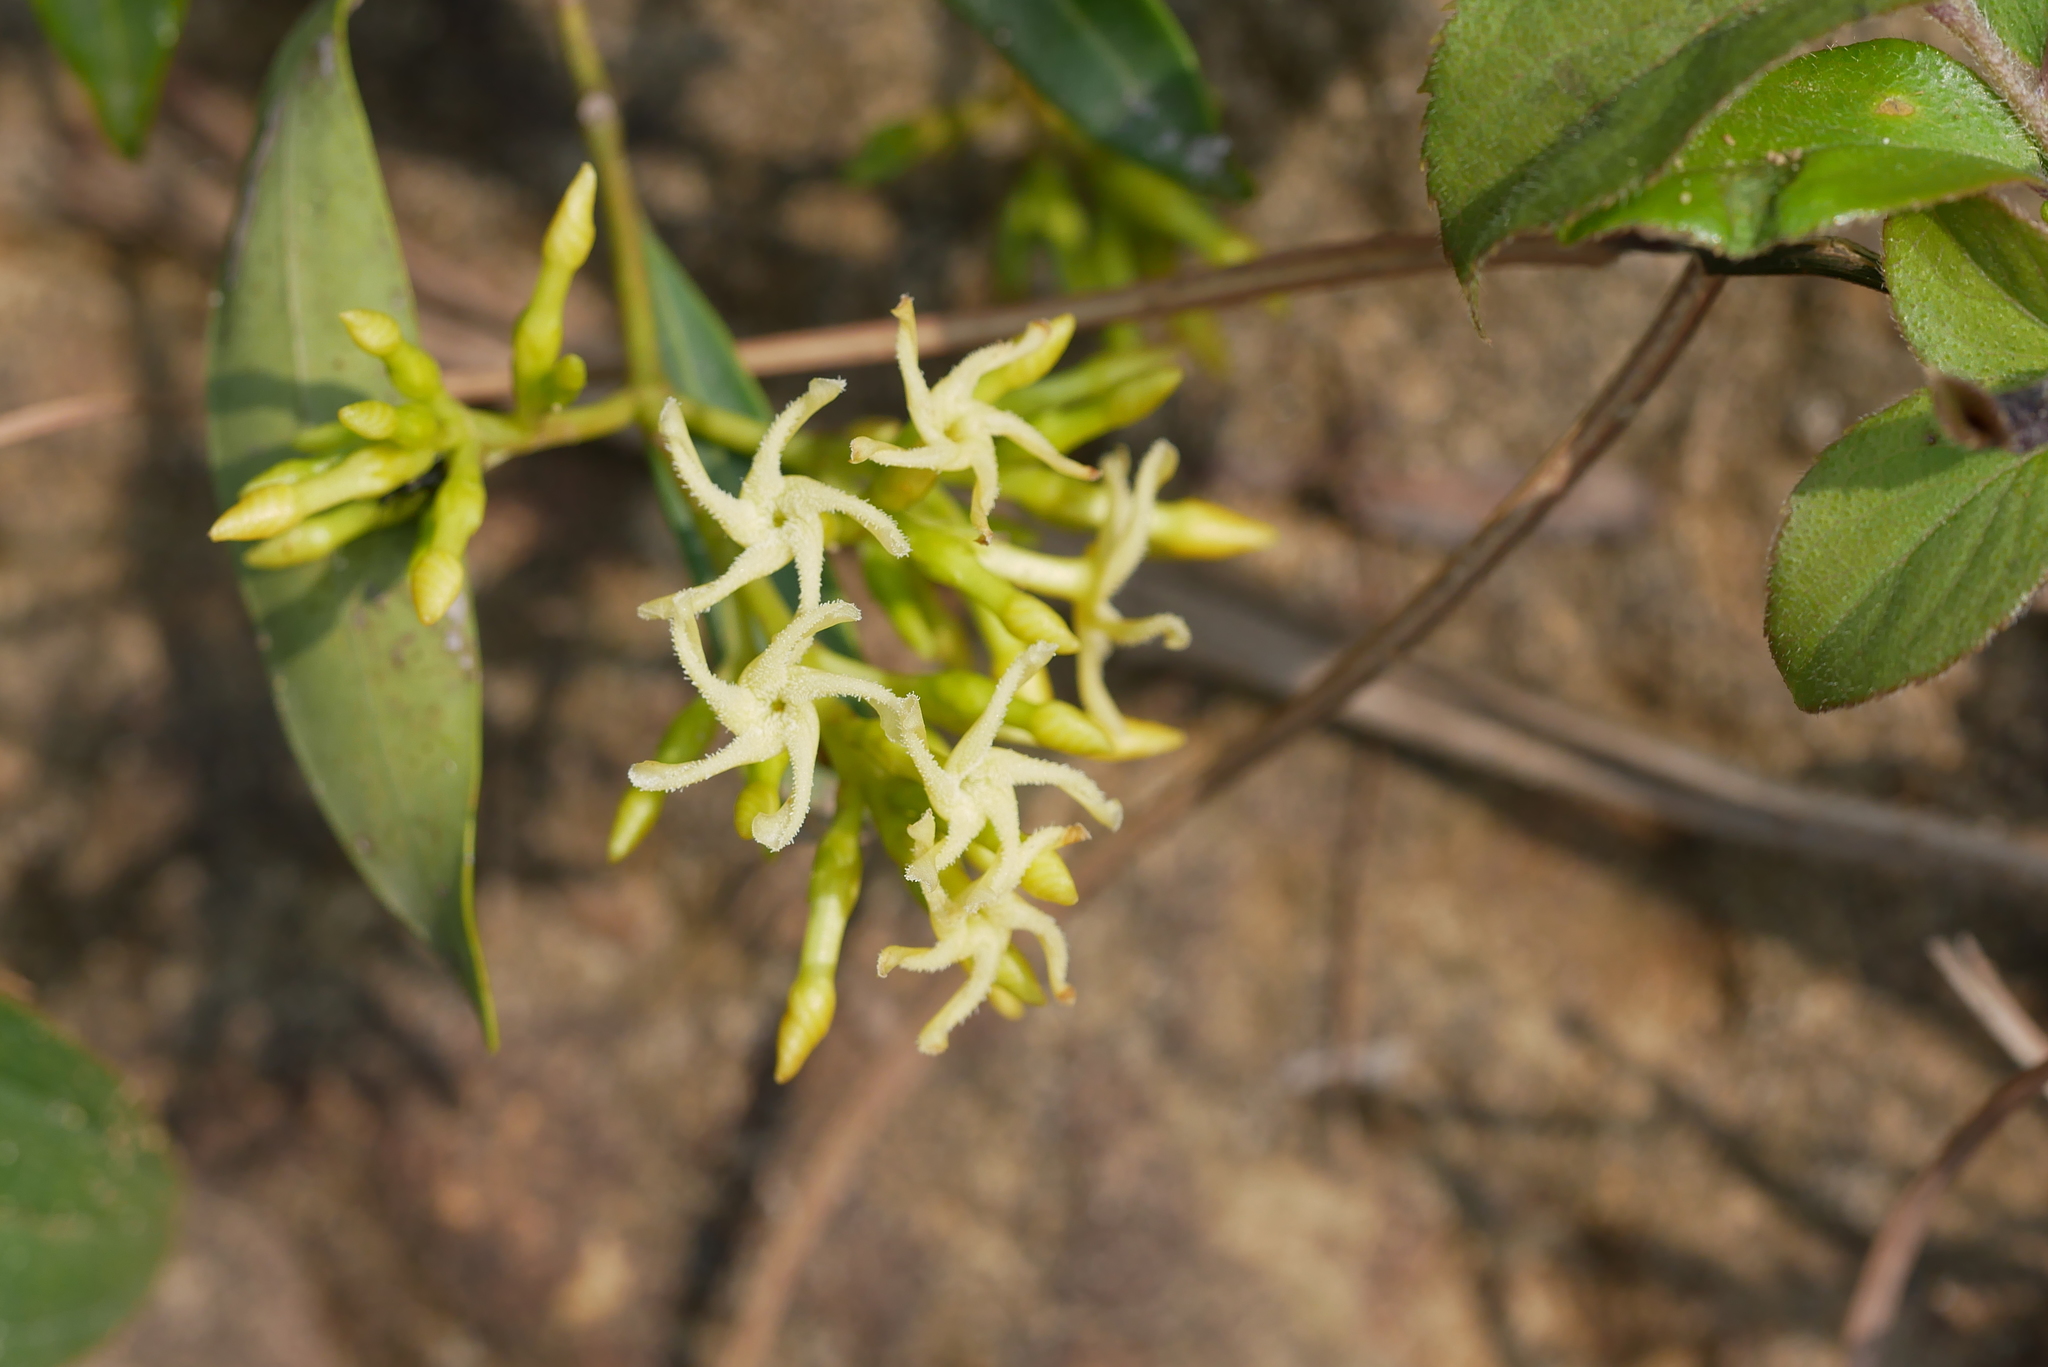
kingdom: Plantae
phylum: Tracheophyta
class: Magnoliopsida
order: Gentianales
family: Apocynaceae
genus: Anodendron
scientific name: Anodendron affine
